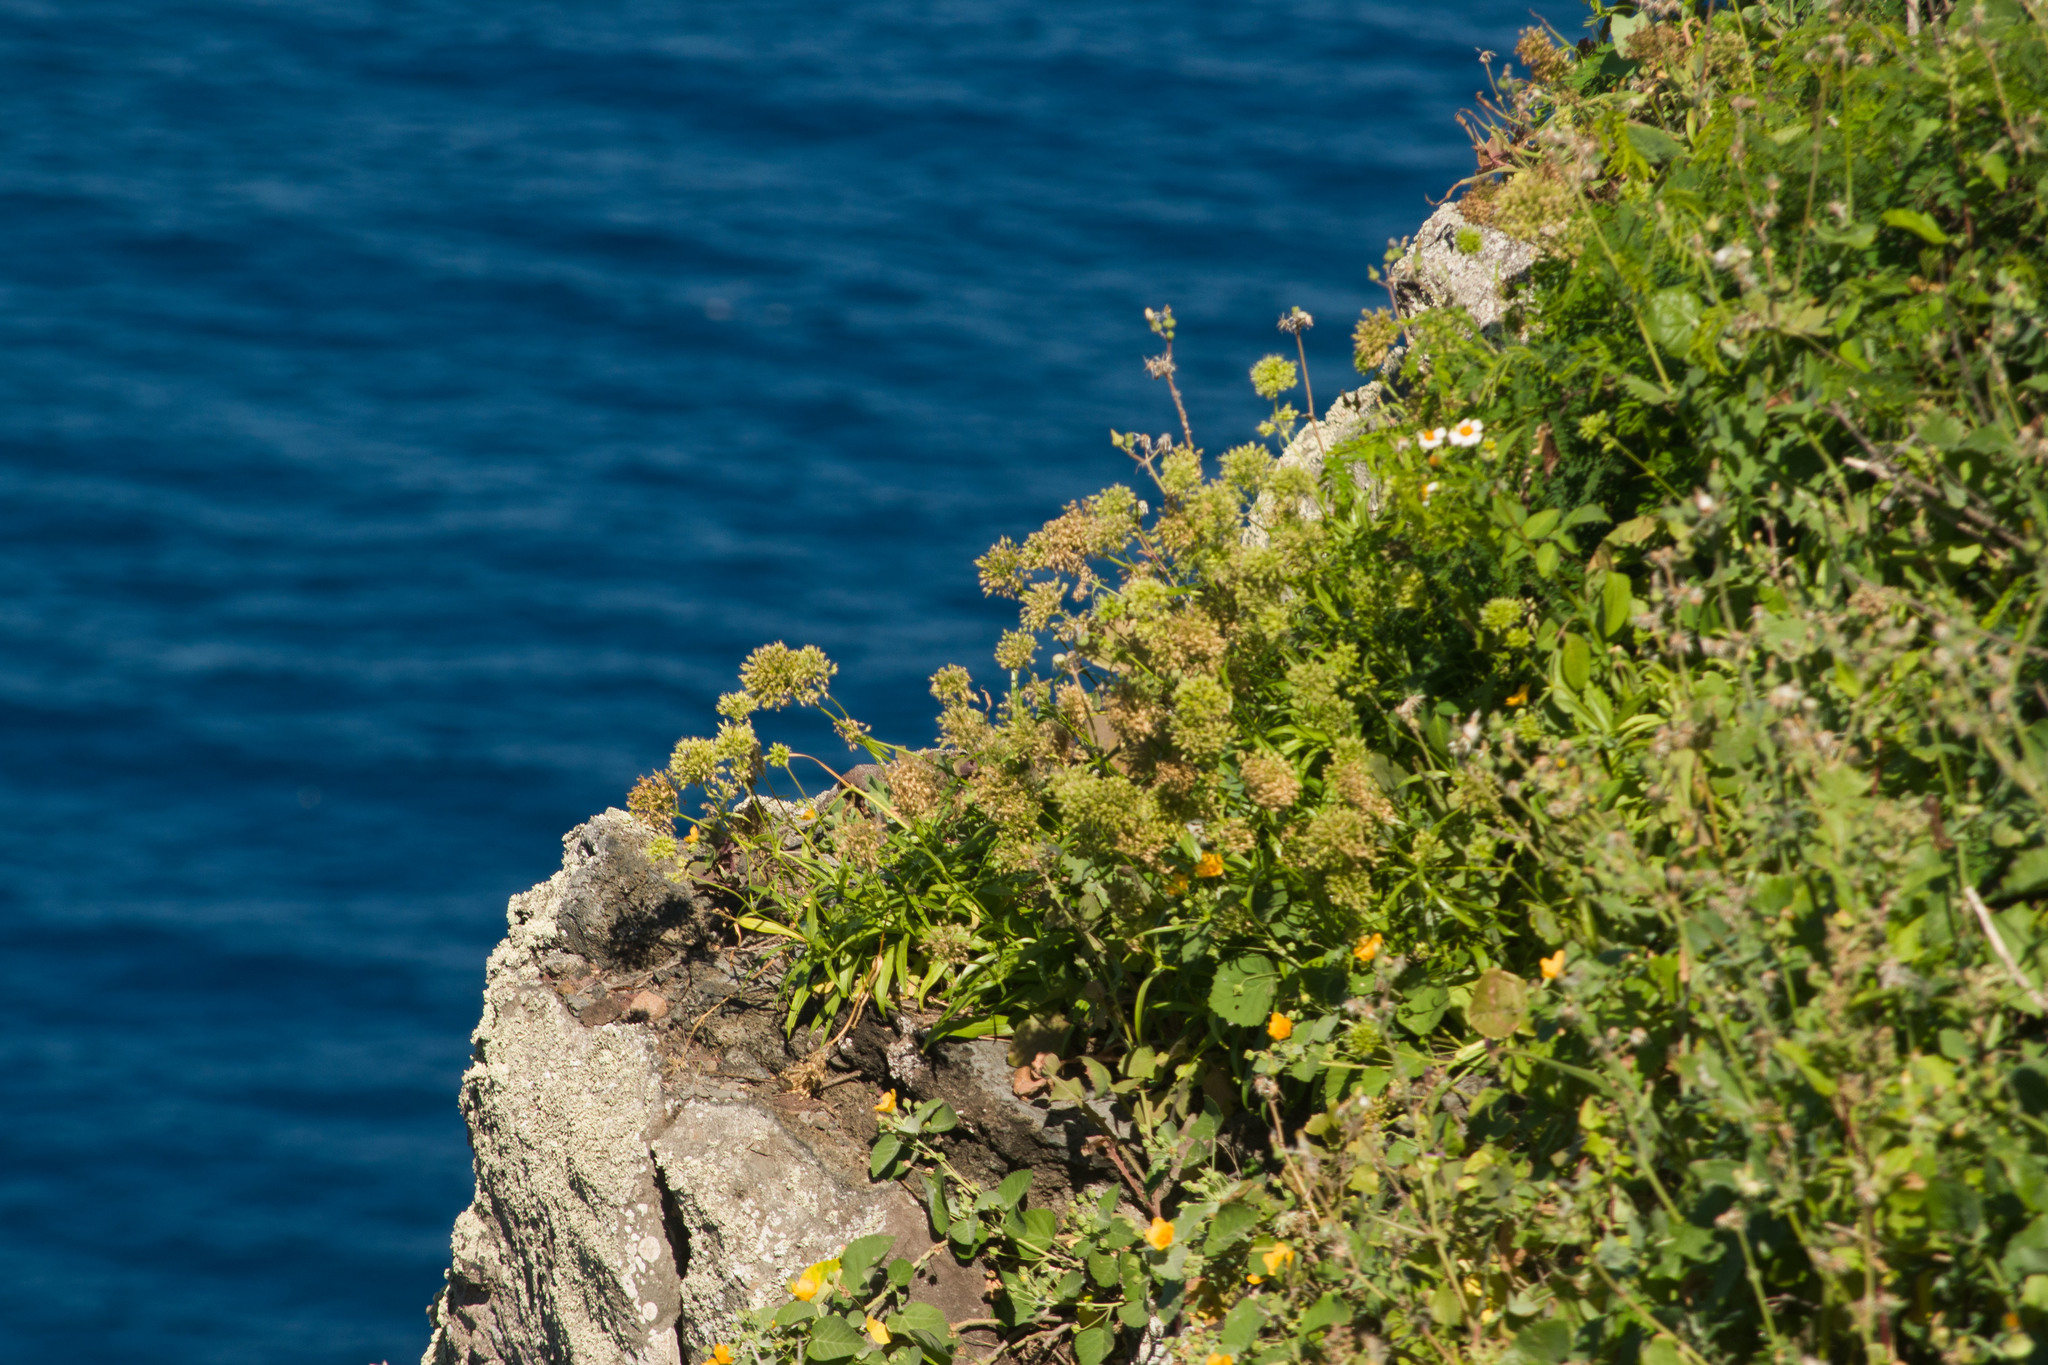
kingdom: Plantae
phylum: Tracheophyta
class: Magnoliopsida
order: Caryophyllales
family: Caryophyllaceae
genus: Schiedea
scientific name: Schiedea globosa
